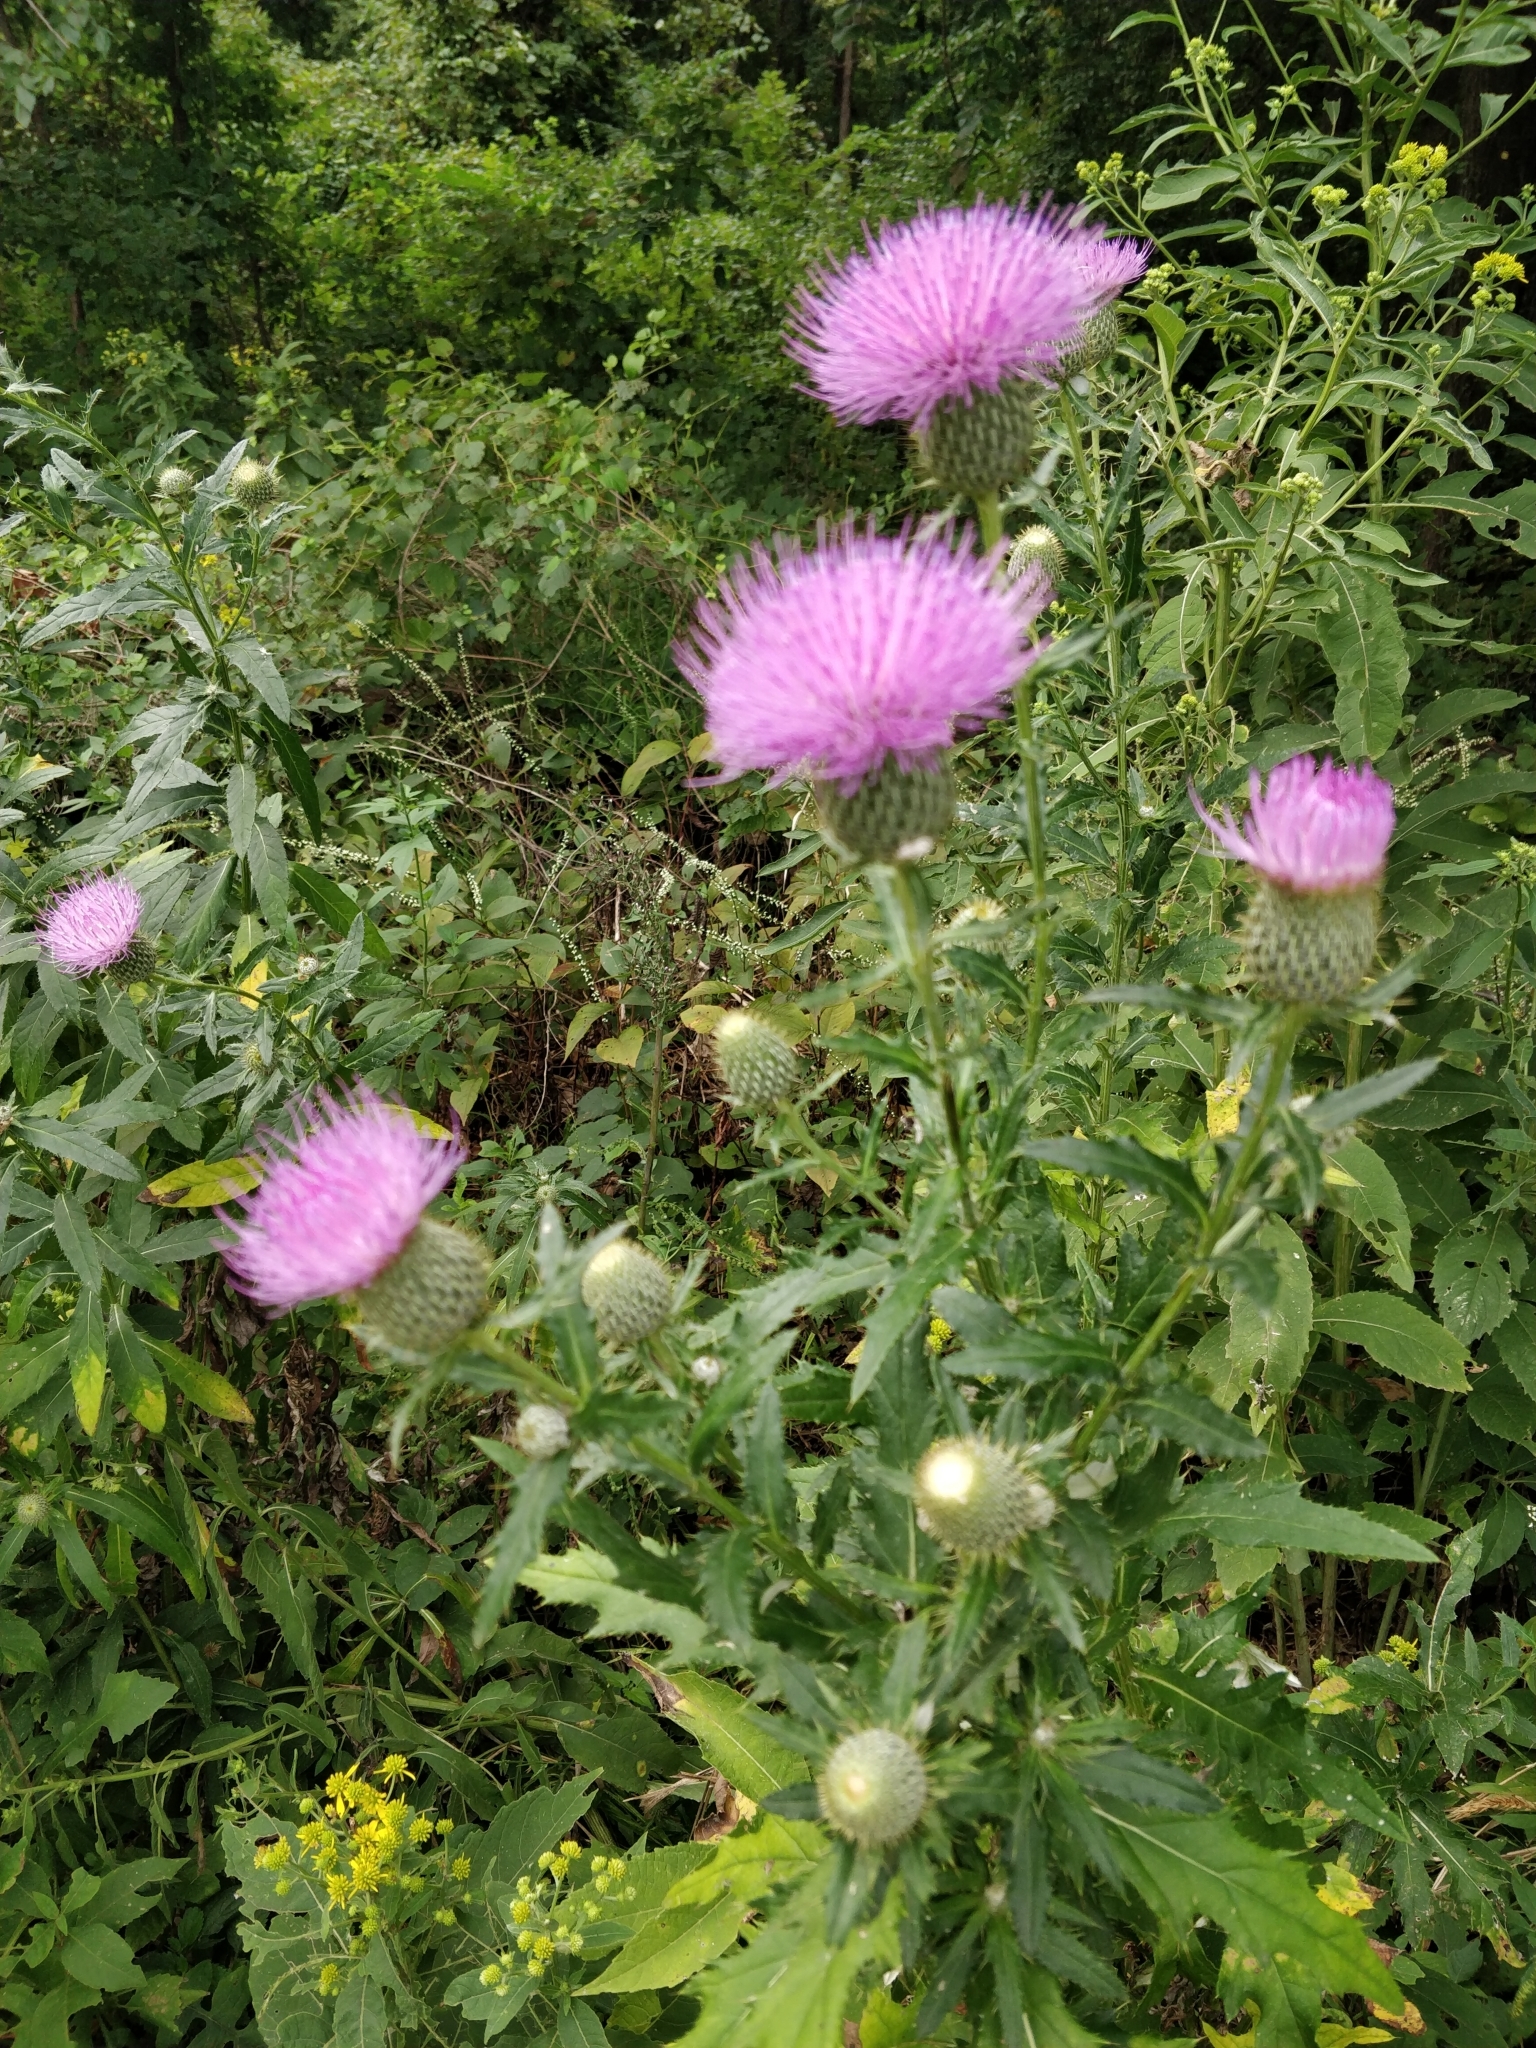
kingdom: Plantae
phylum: Tracheophyta
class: Magnoliopsida
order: Asterales
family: Asteraceae
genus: Cirsium
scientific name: Cirsium altissimum
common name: Roadside thistle
